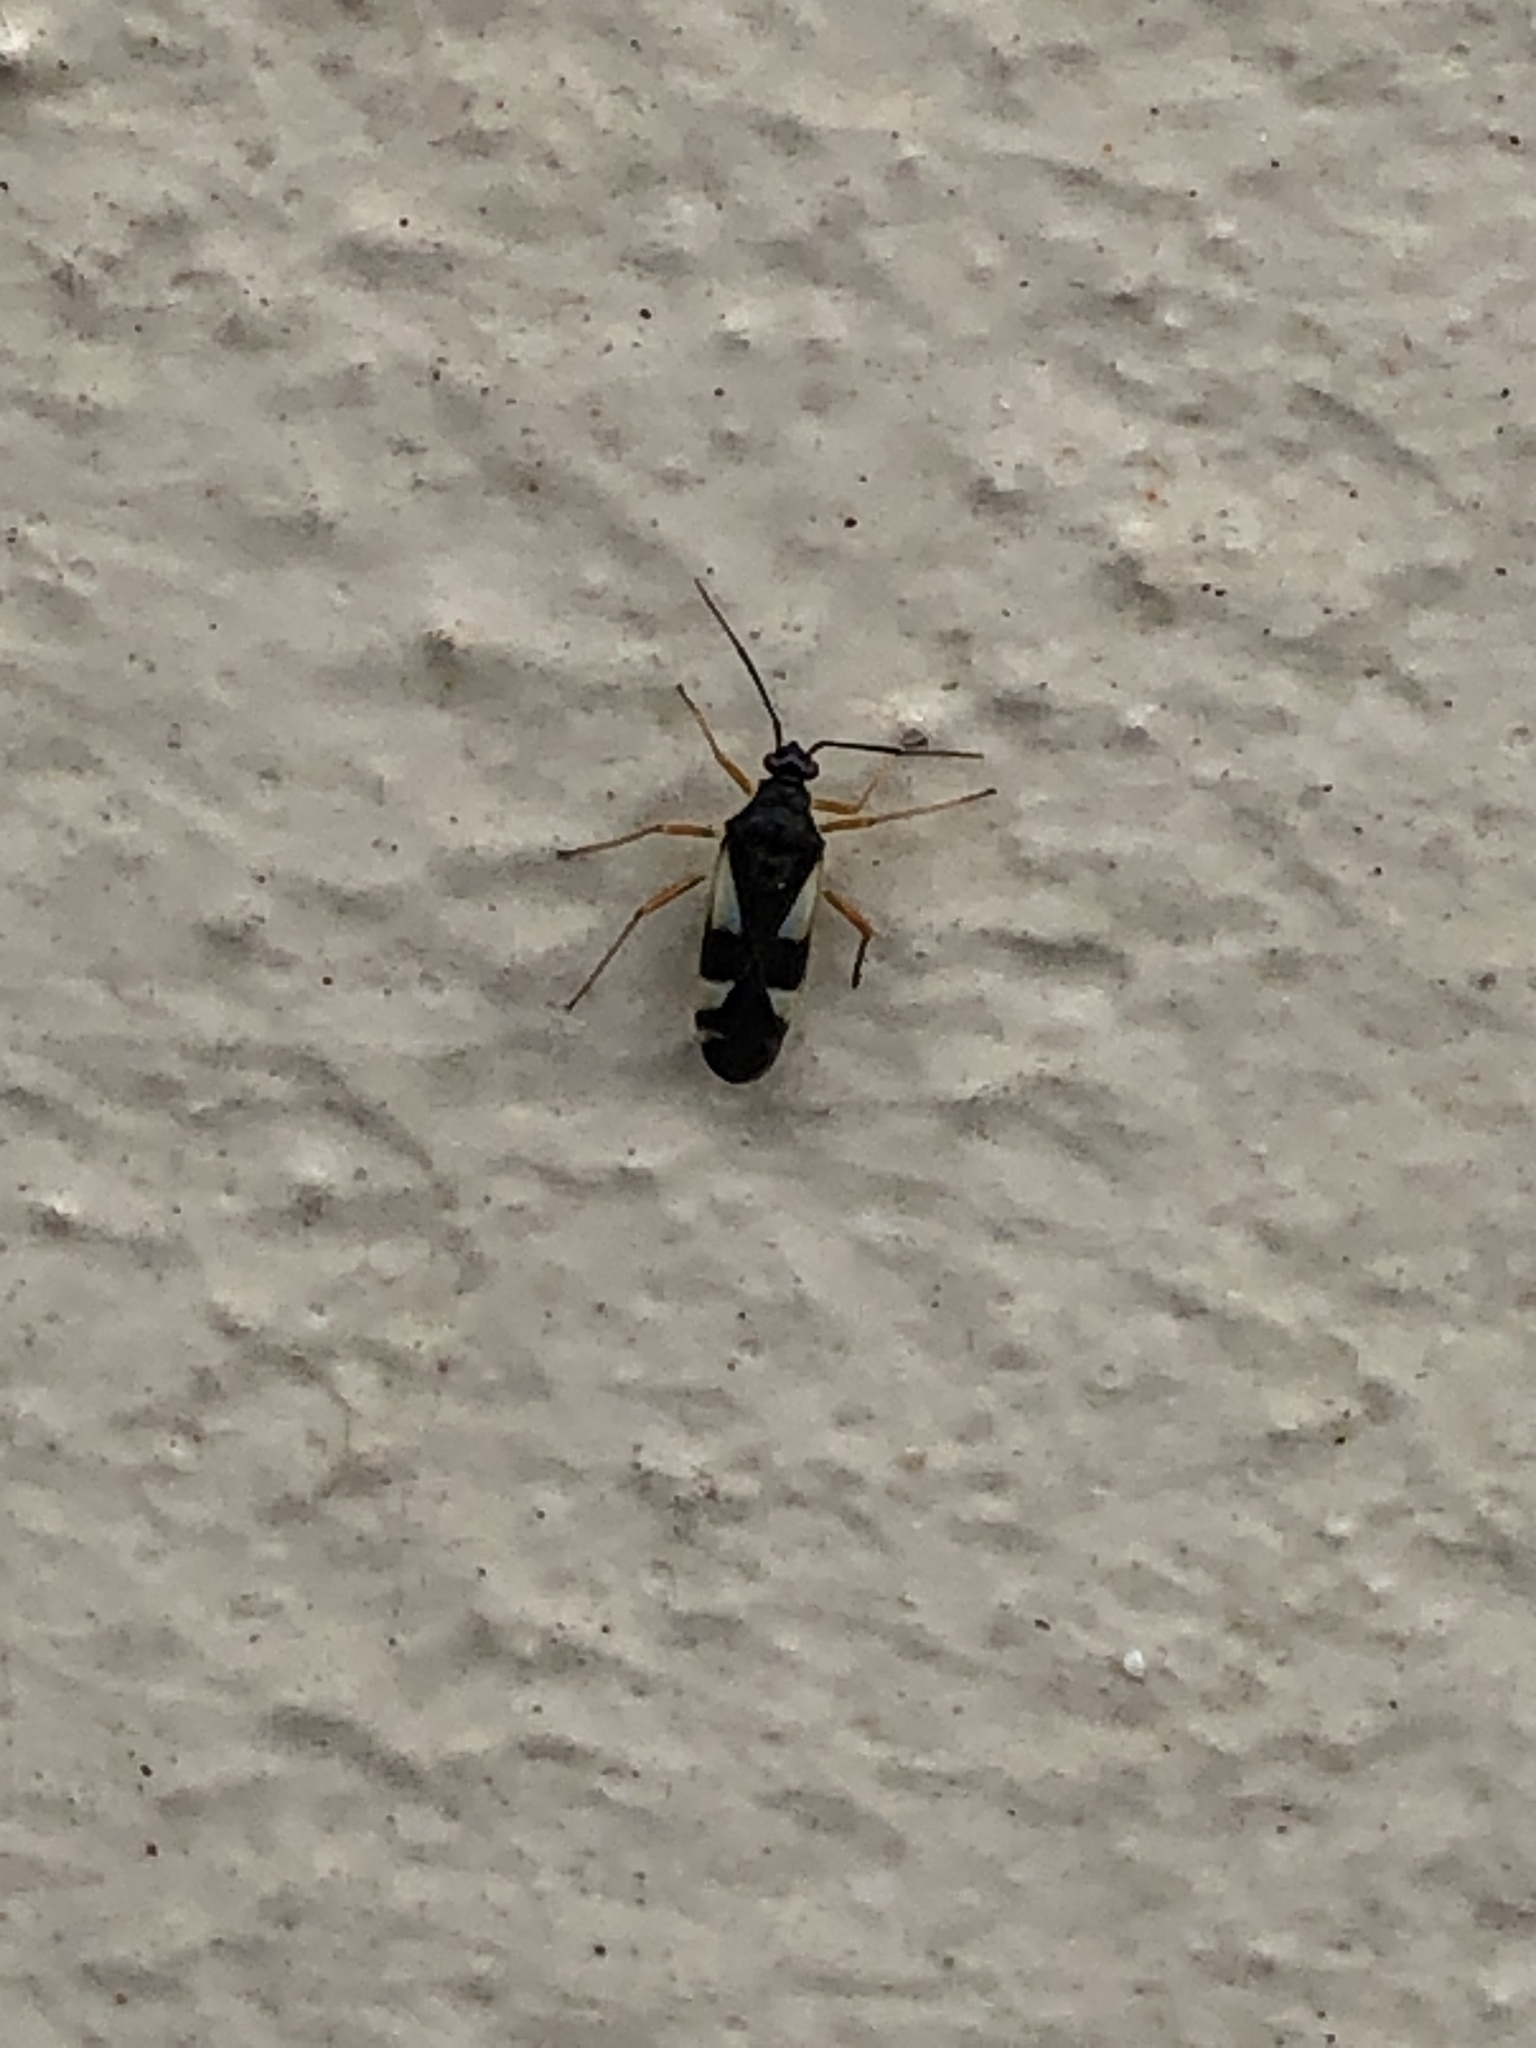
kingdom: Animalia
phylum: Arthropoda
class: Insecta
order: Hemiptera
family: Miridae
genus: Dryophilocoris
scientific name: Dryophilocoris flavoquadrimaculatus
